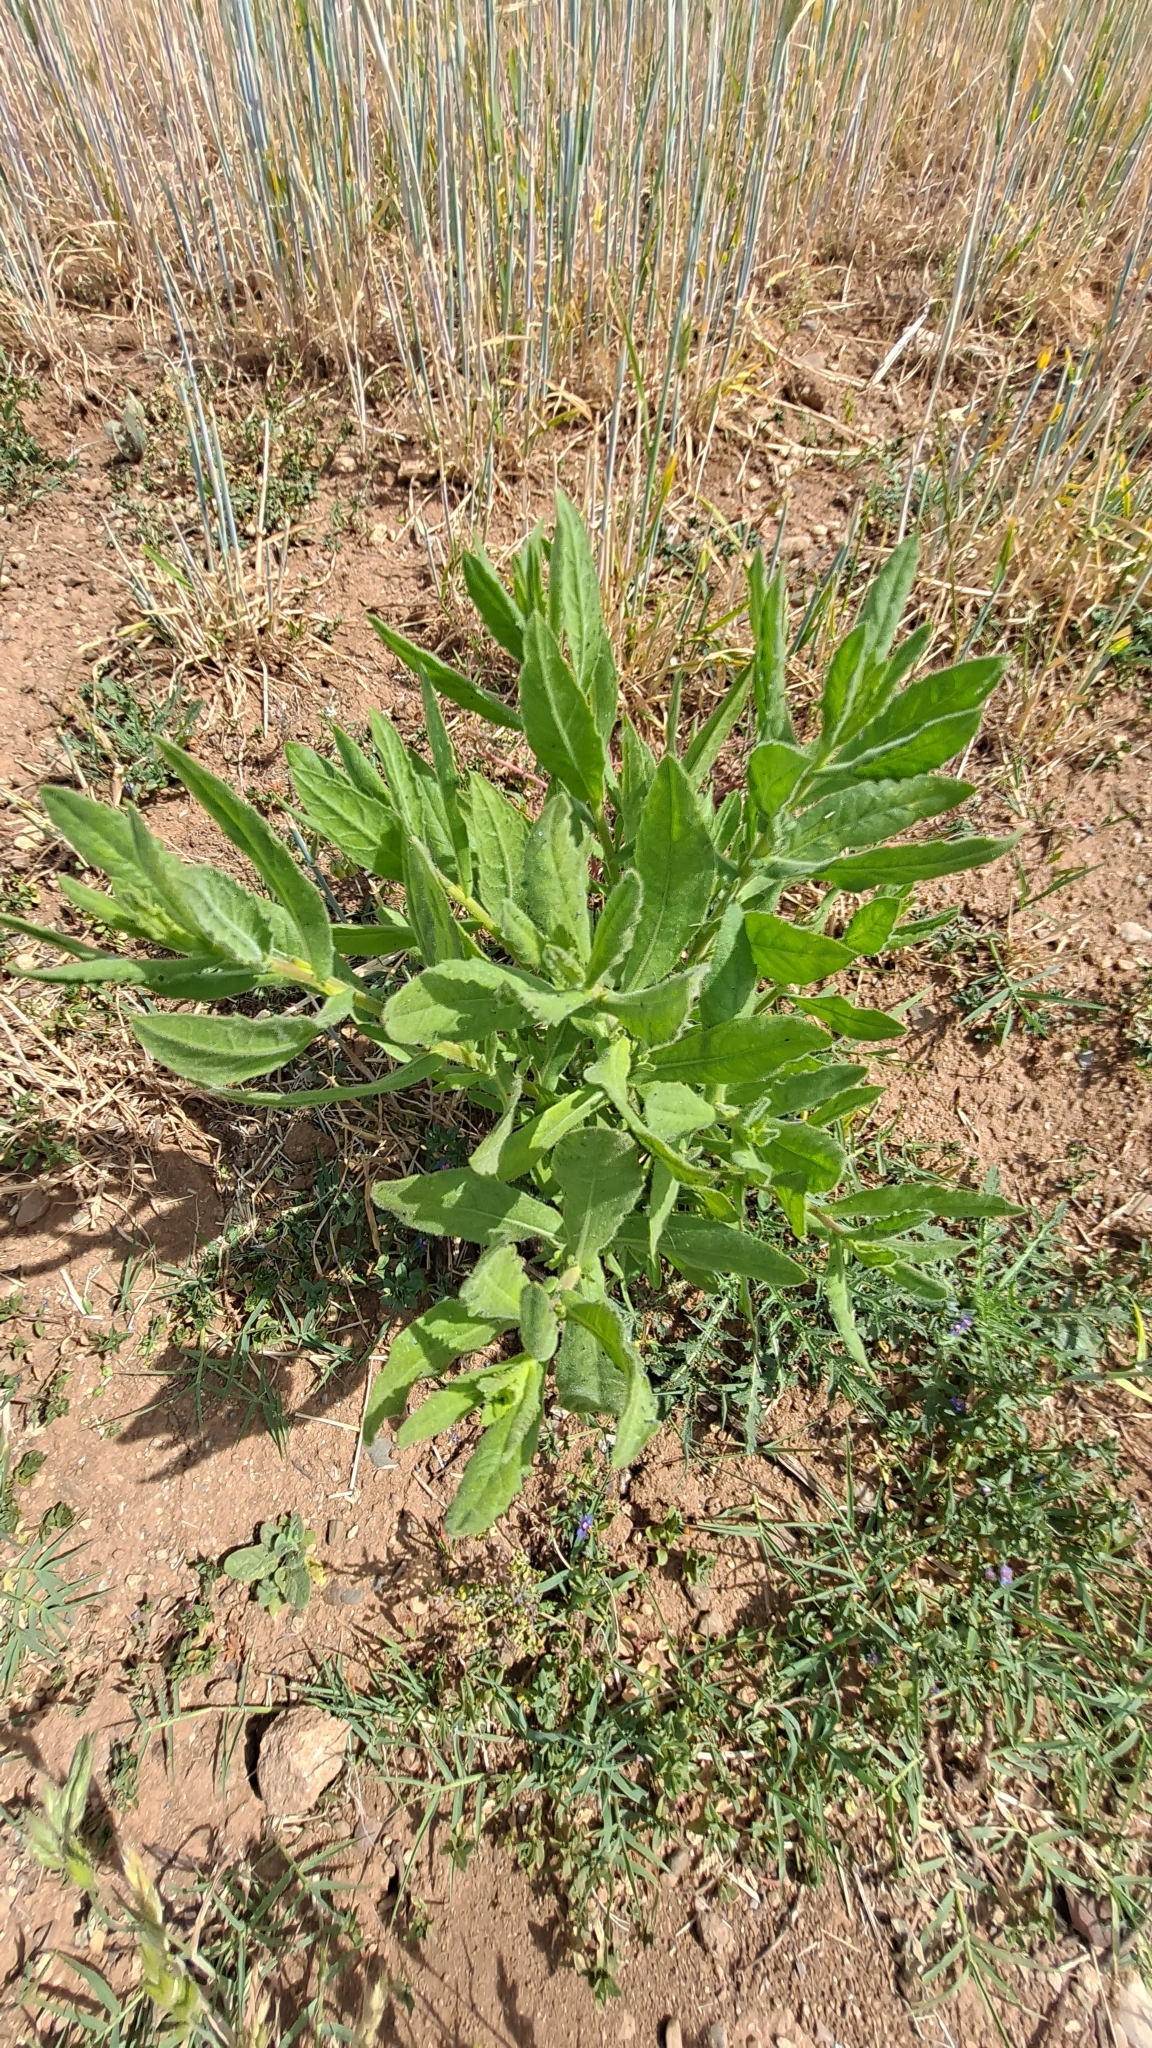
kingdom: Plantae
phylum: Tracheophyta
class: Magnoliopsida
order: Asterales
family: Asteraceae
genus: Dittrichia
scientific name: Dittrichia viscosa
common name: Woody fleabane
